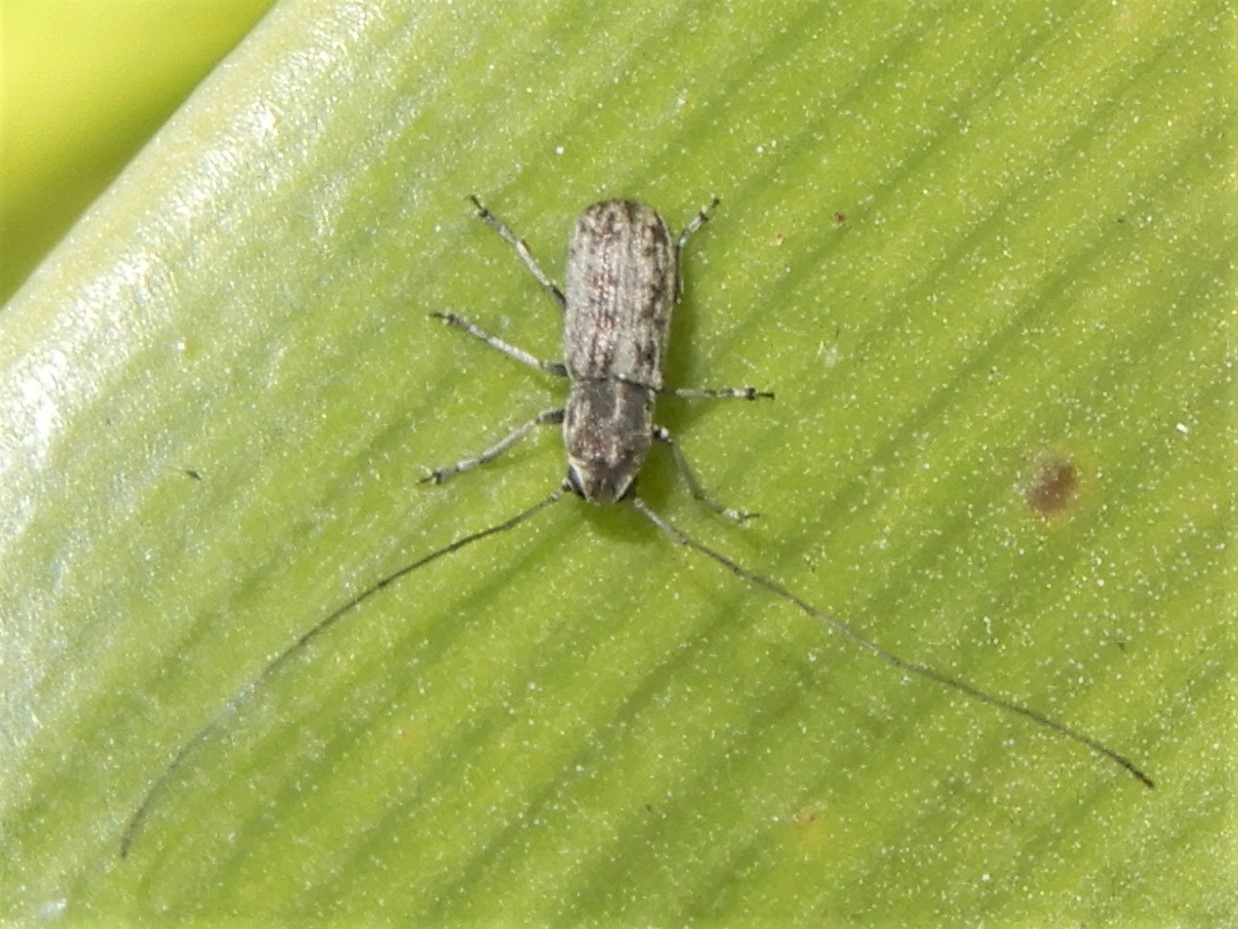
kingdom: Animalia
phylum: Arthropoda
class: Insecta
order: Coleoptera
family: Anthribidae
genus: Euciodes
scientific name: Euciodes suturalis
